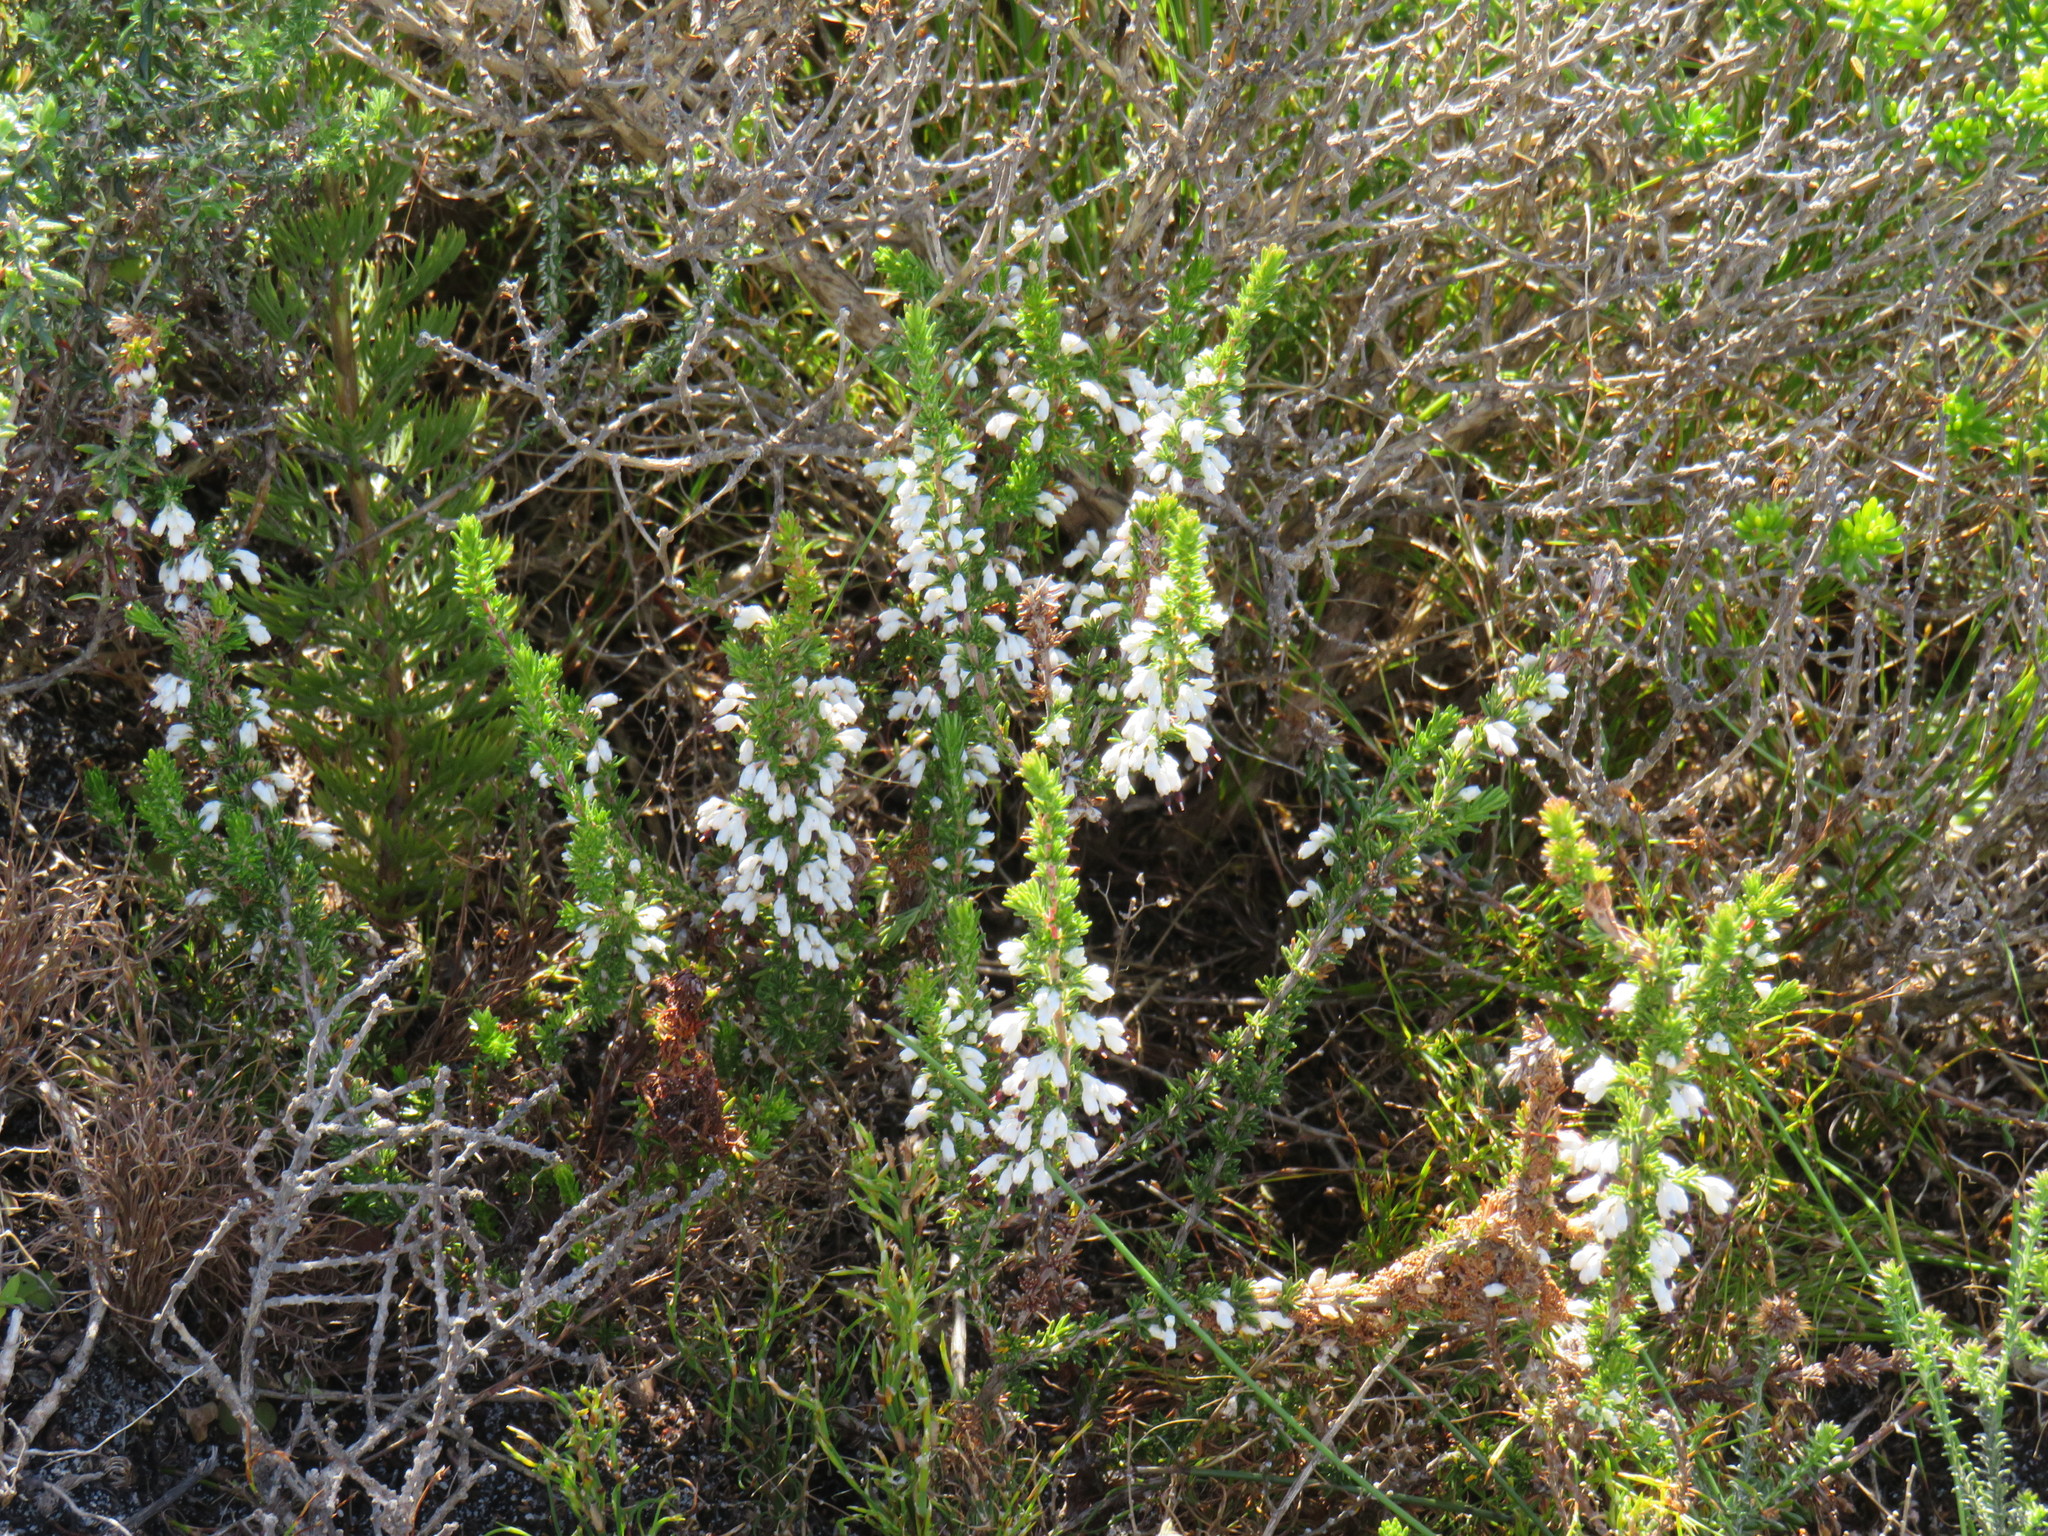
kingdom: Plantae
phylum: Tracheophyta
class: Magnoliopsida
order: Ericales
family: Ericaceae
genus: Erica
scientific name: Erica imbricata
